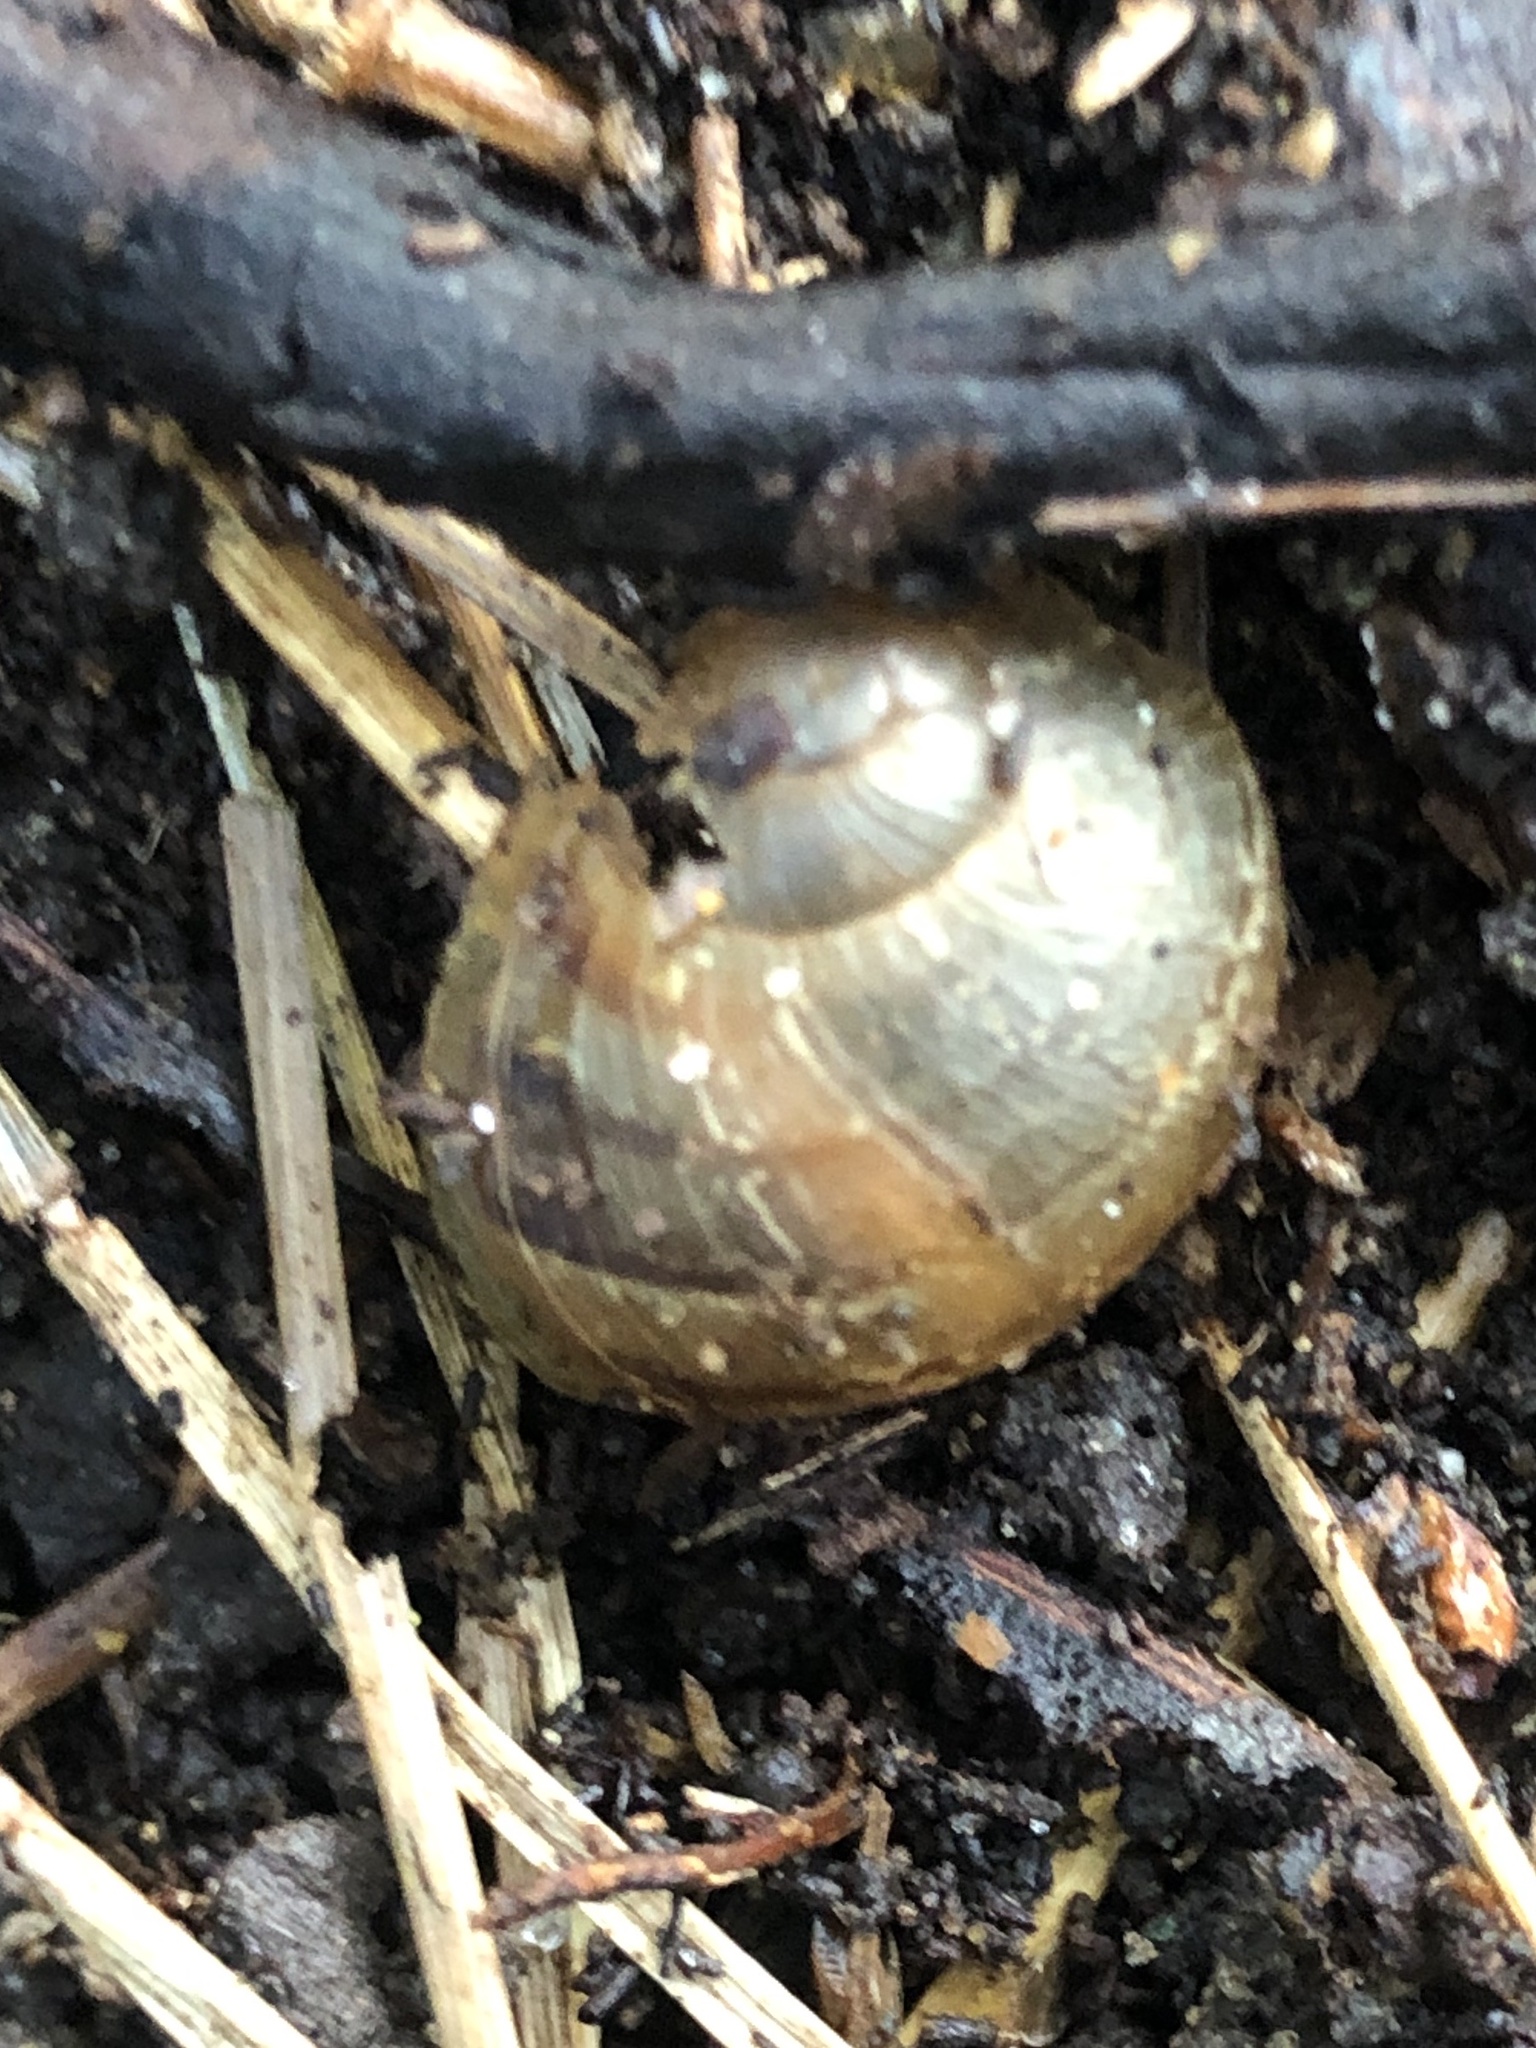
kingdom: Animalia
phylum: Mollusca
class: Gastropoda
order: Stylommatophora
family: Helicidae
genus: Cornu
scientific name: Cornu aspersum
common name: Brown garden snail
